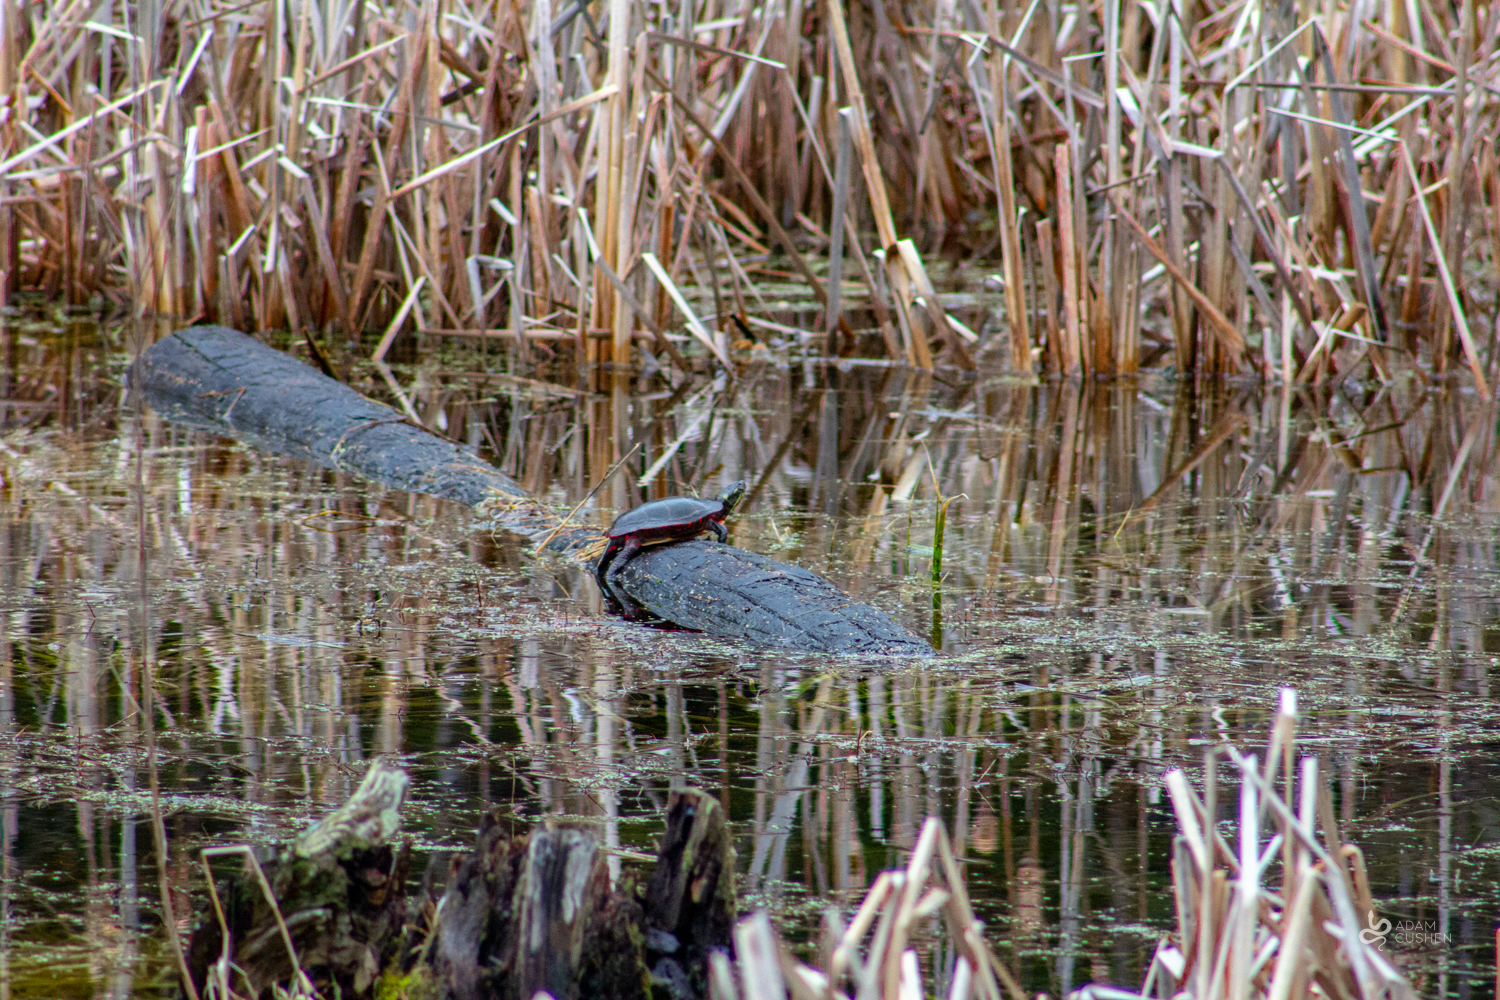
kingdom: Animalia
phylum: Chordata
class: Testudines
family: Emydidae
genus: Chrysemys
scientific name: Chrysemys picta
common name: Painted turtle
